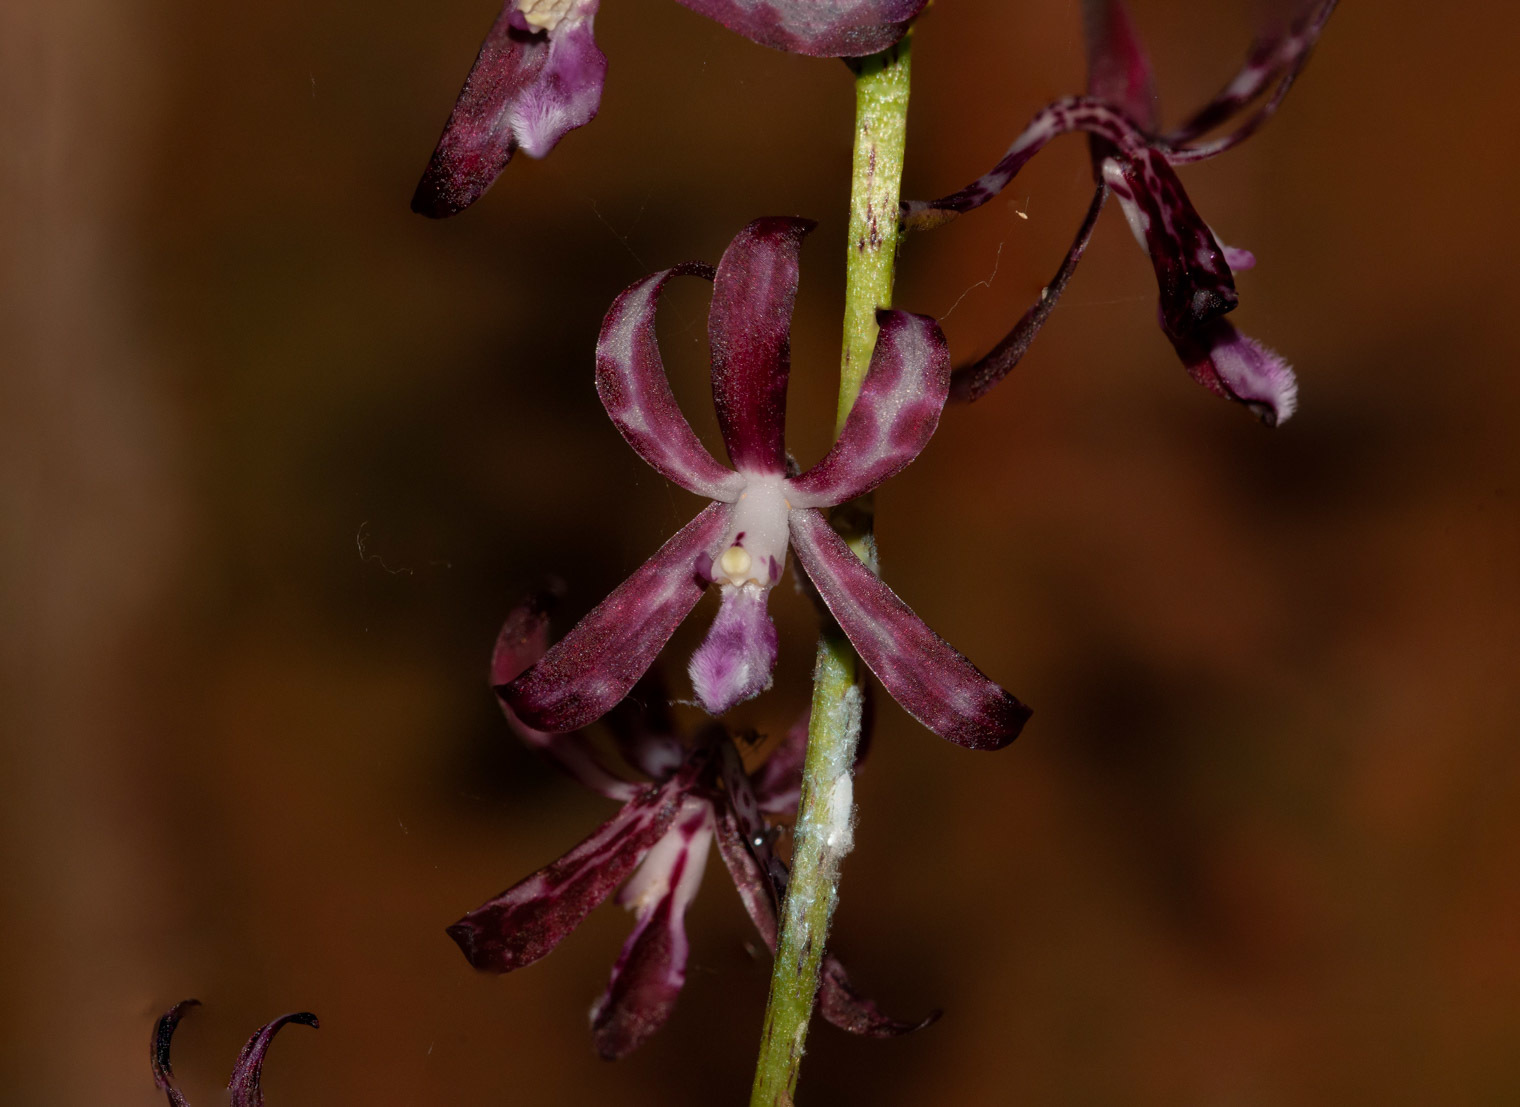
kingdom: Plantae
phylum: Tracheophyta
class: Liliopsida
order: Asparagales
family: Orchidaceae
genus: Dipodium
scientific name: Dipodium variegatum
